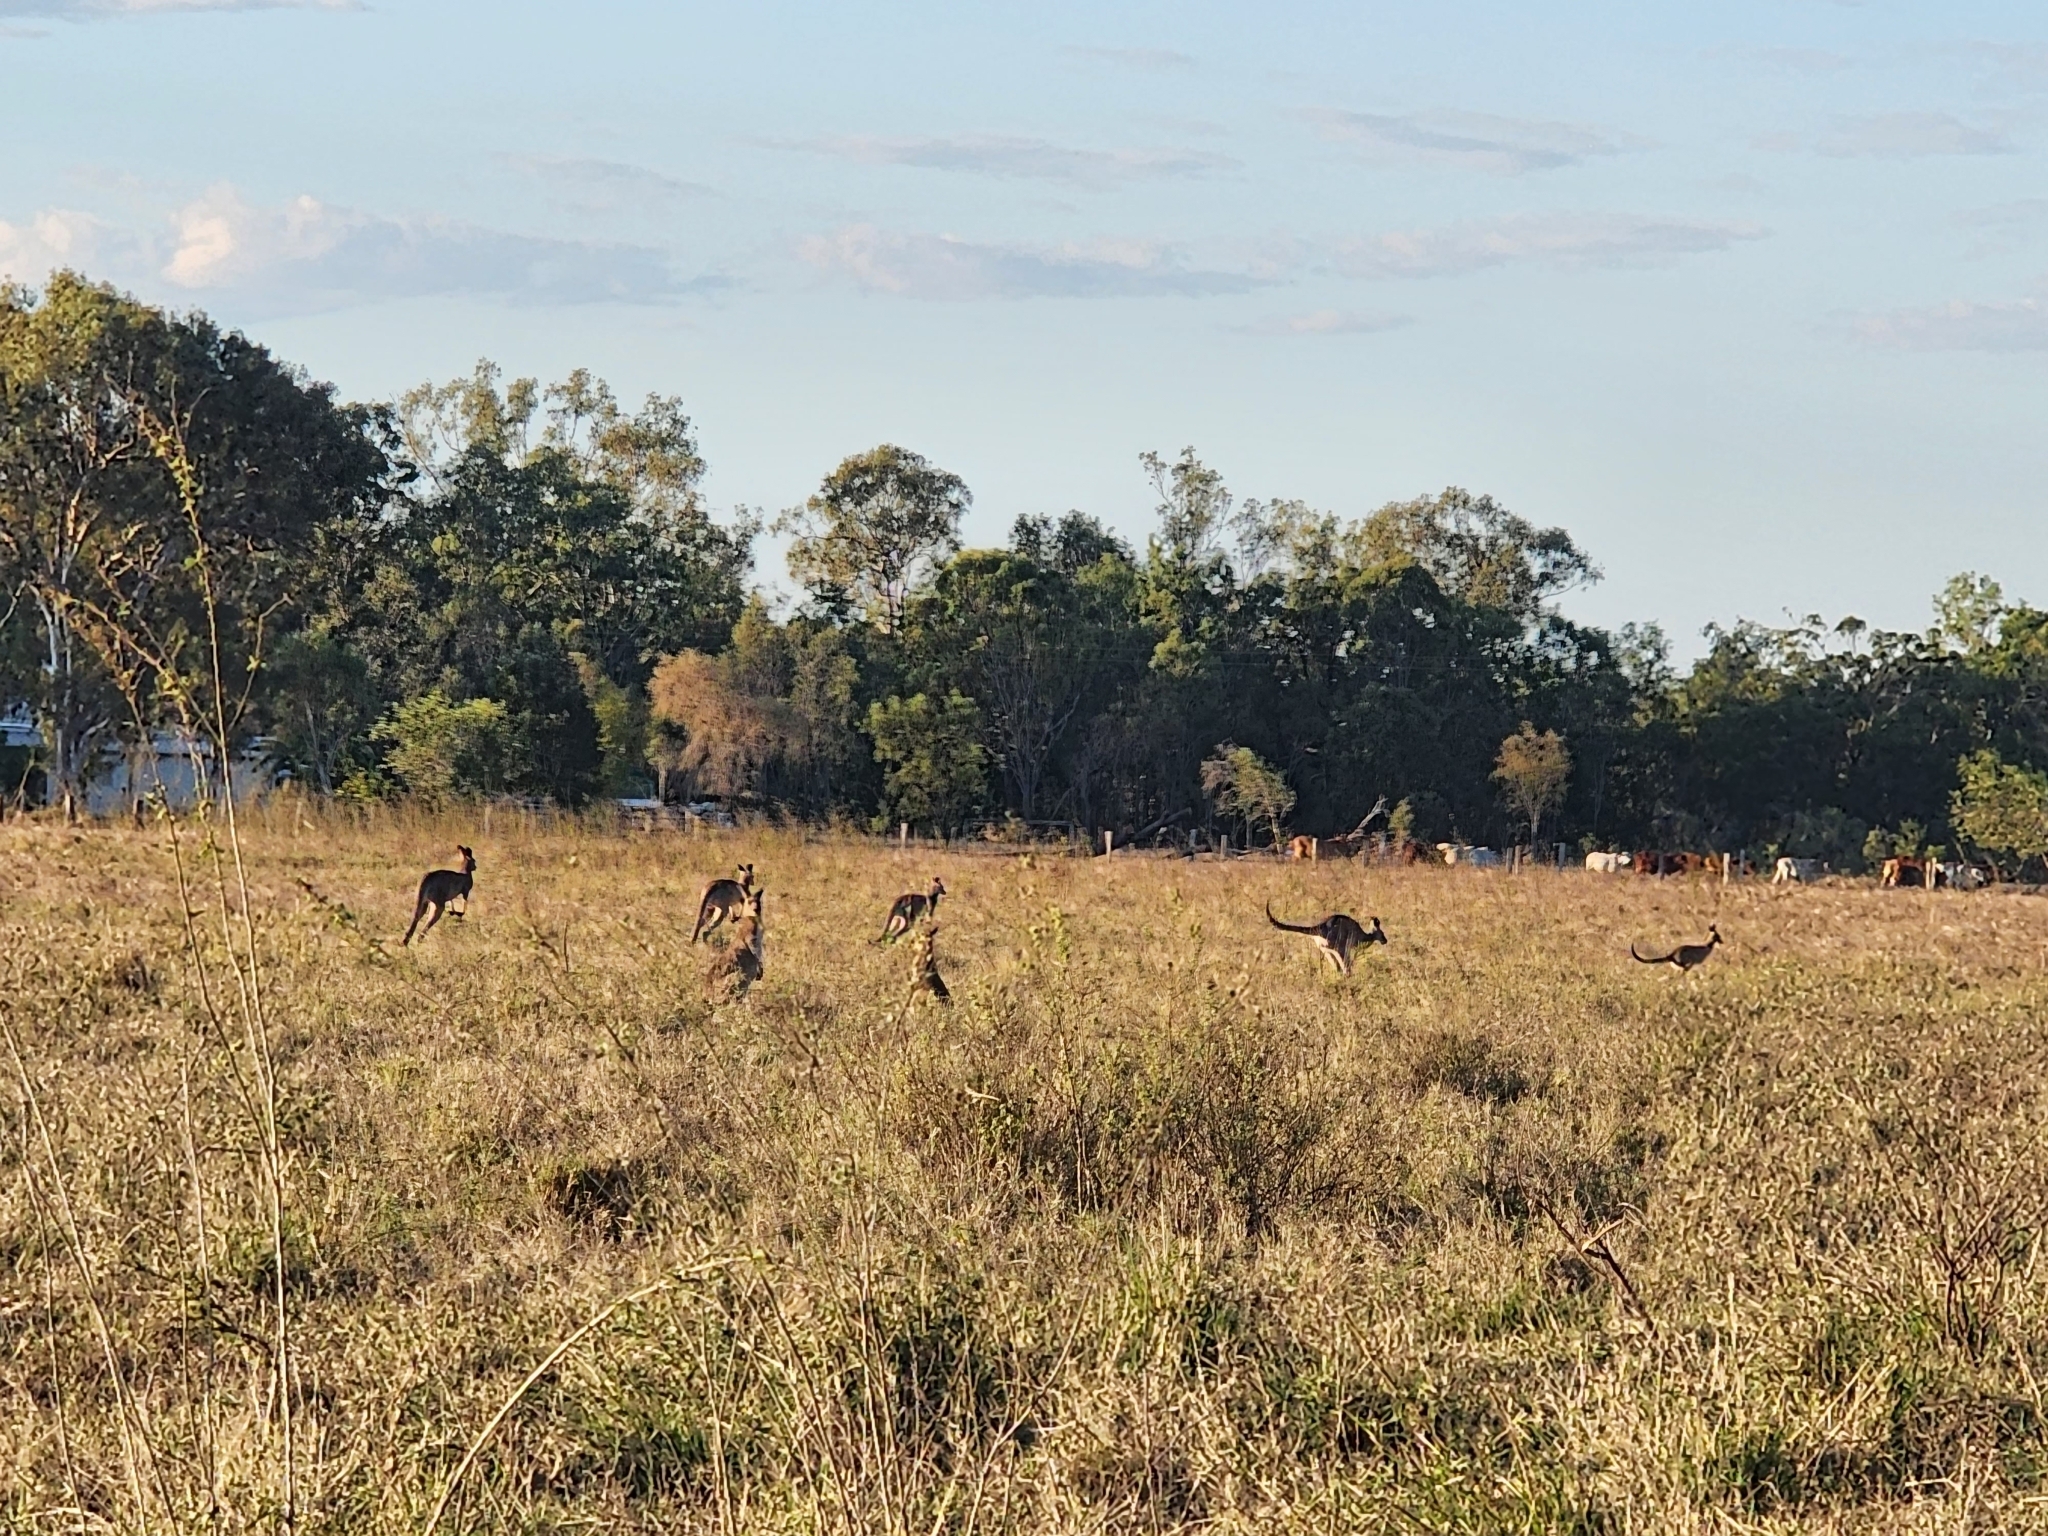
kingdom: Animalia
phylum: Chordata
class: Mammalia
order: Diprotodontia
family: Macropodidae
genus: Macropus
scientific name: Macropus giganteus
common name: Eastern grey kangaroo
